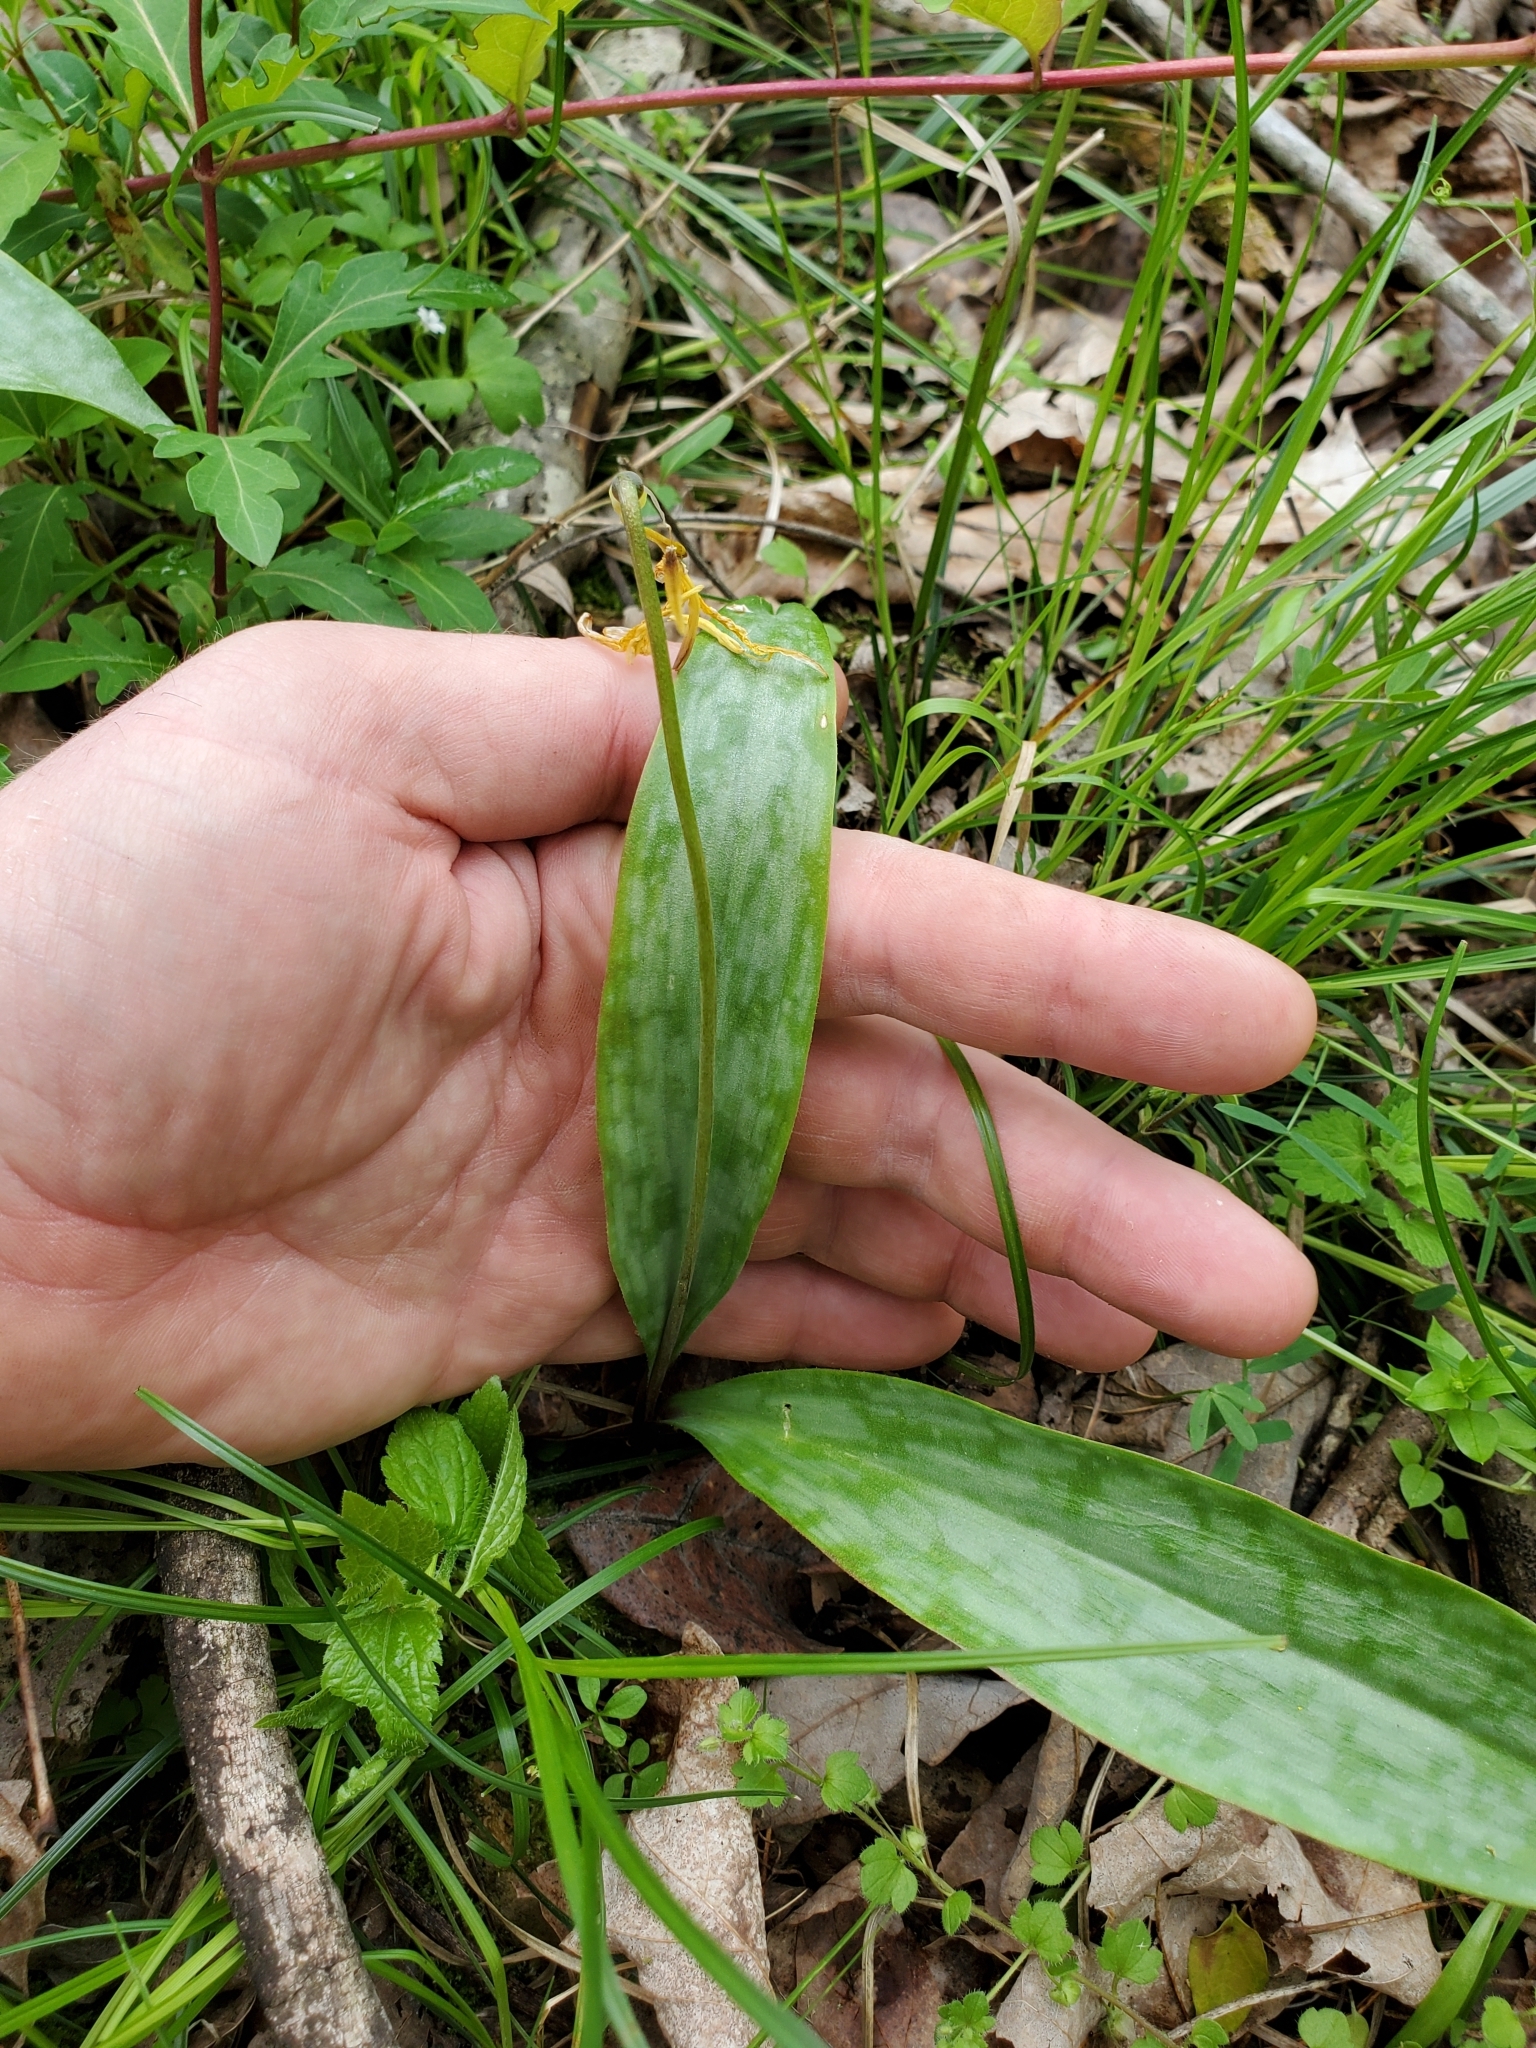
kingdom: Plantae
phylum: Tracheophyta
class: Liliopsida
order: Liliales
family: Liliaceae
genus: Erythronium
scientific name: Erythronium americanum
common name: Yellow adder's-tongue
